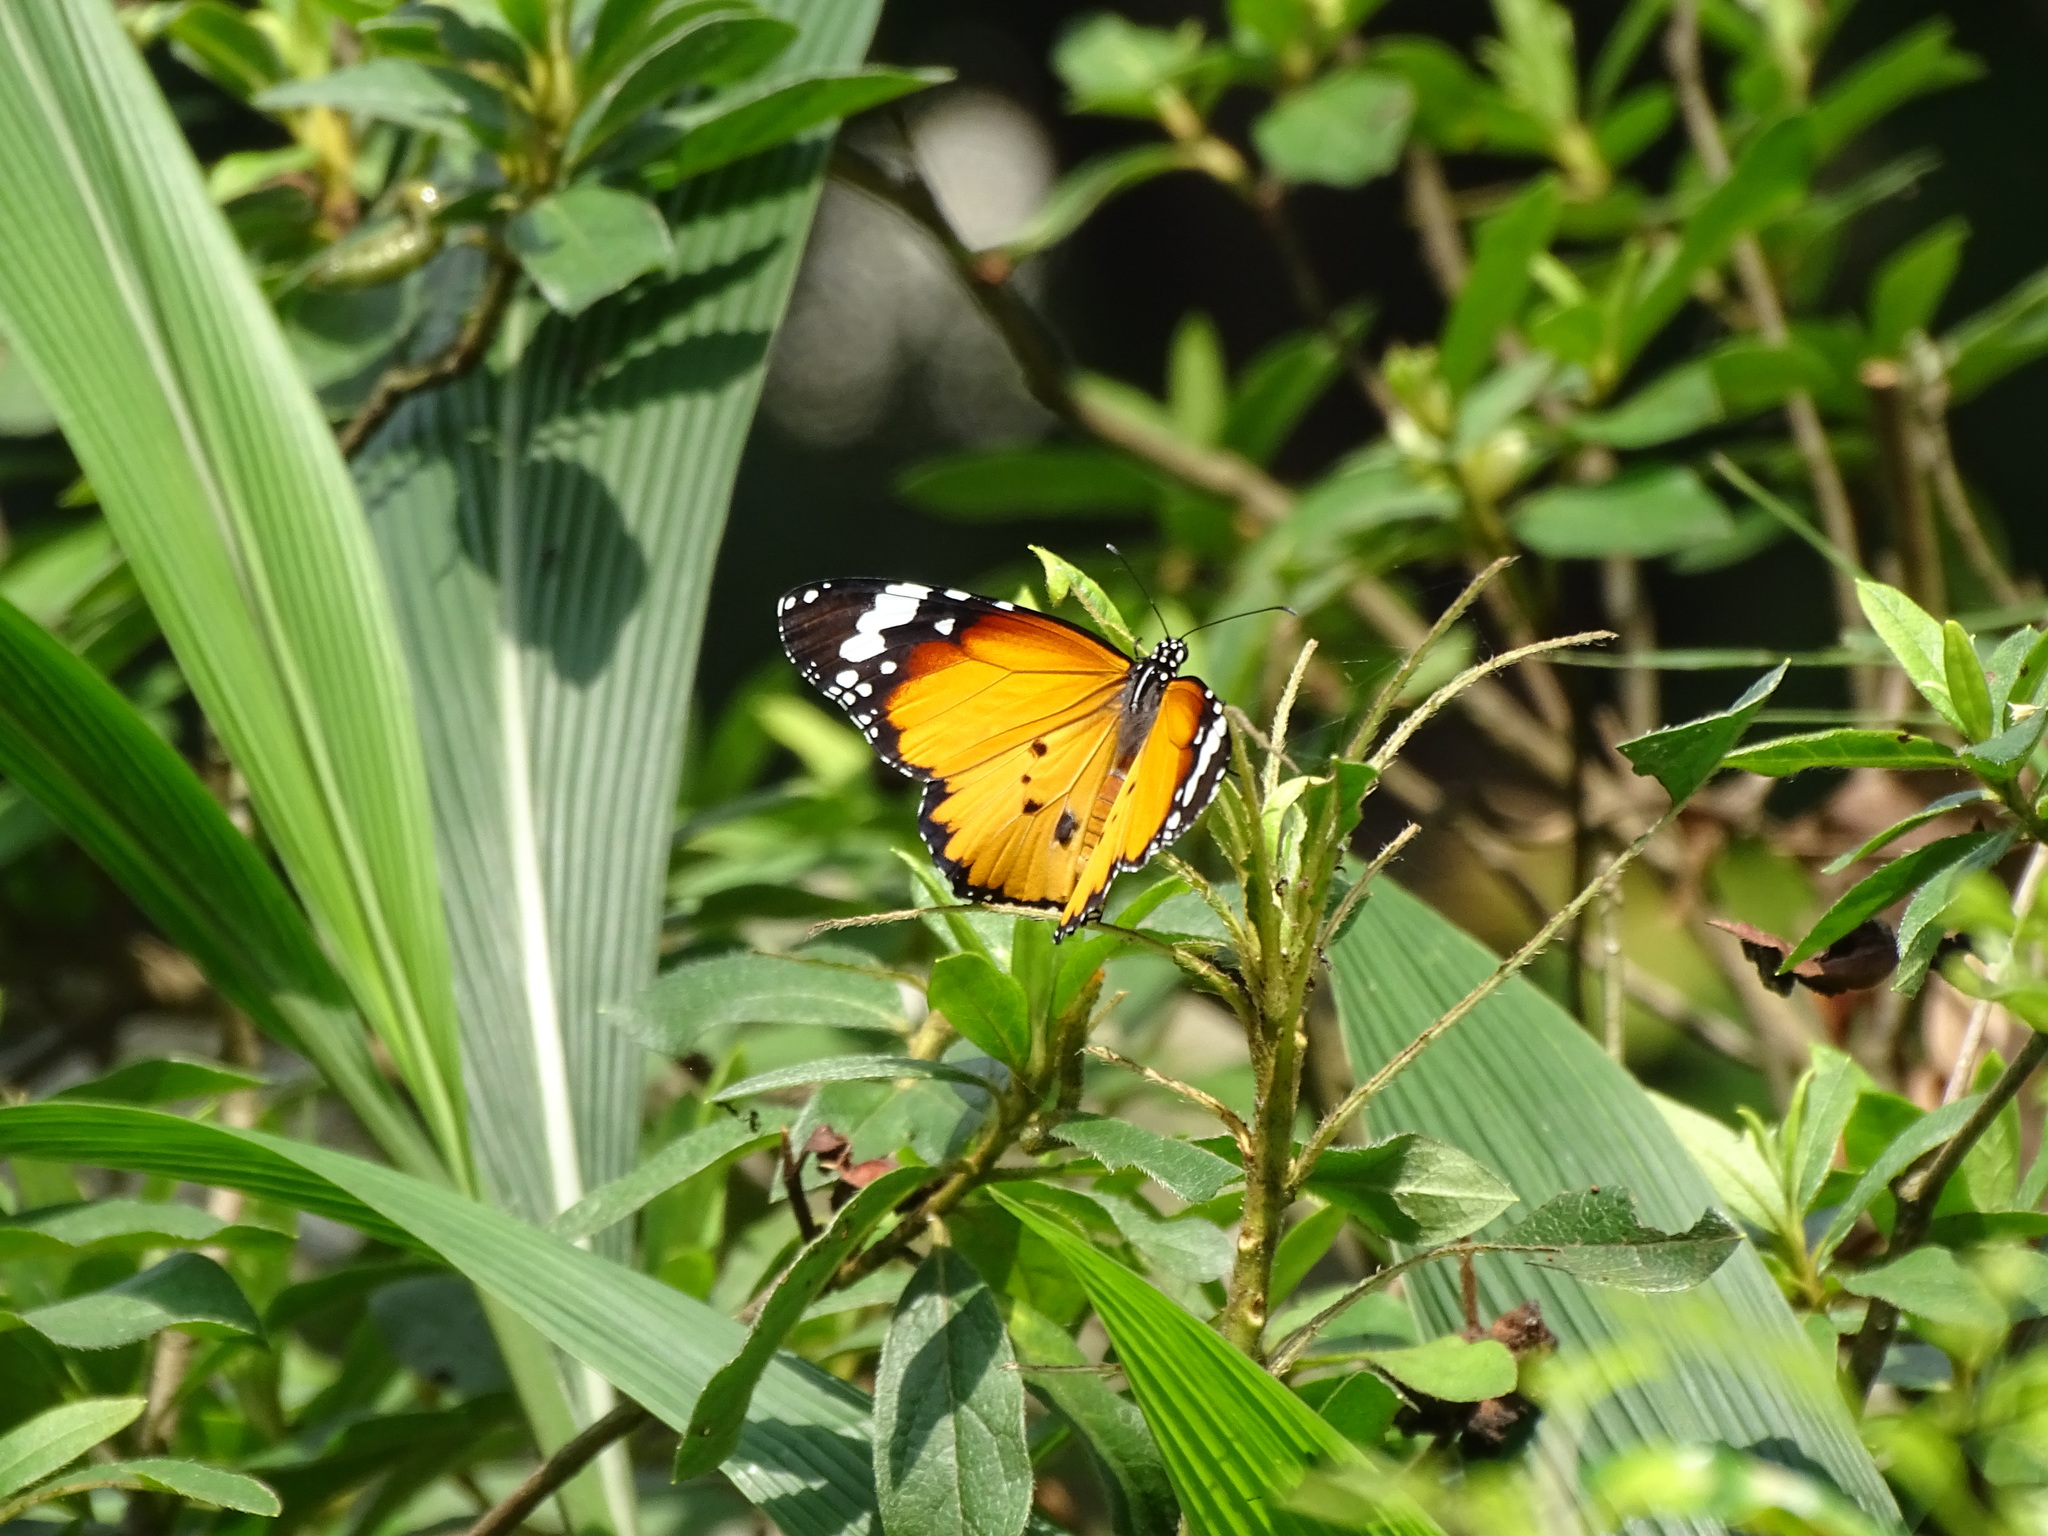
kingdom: Animalia
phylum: Arthropoda
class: Insecta
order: Lepidoptera
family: Nymphalidae
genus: Danaus
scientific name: Danaus chrysippus
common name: Plain tiger
